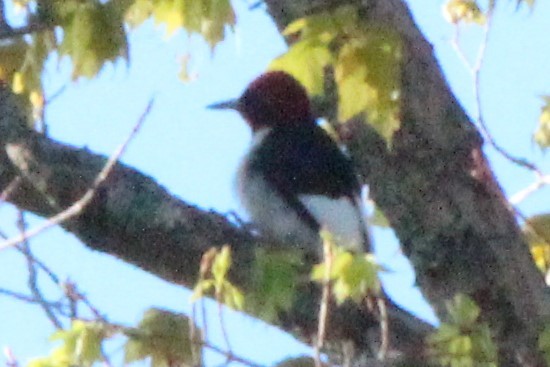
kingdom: Animalia
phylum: Chordata
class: Aves
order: Piciformes
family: Picidae
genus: Melanerpes
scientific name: Melanerpes erythrocephalus
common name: Red-headed woodpecker
